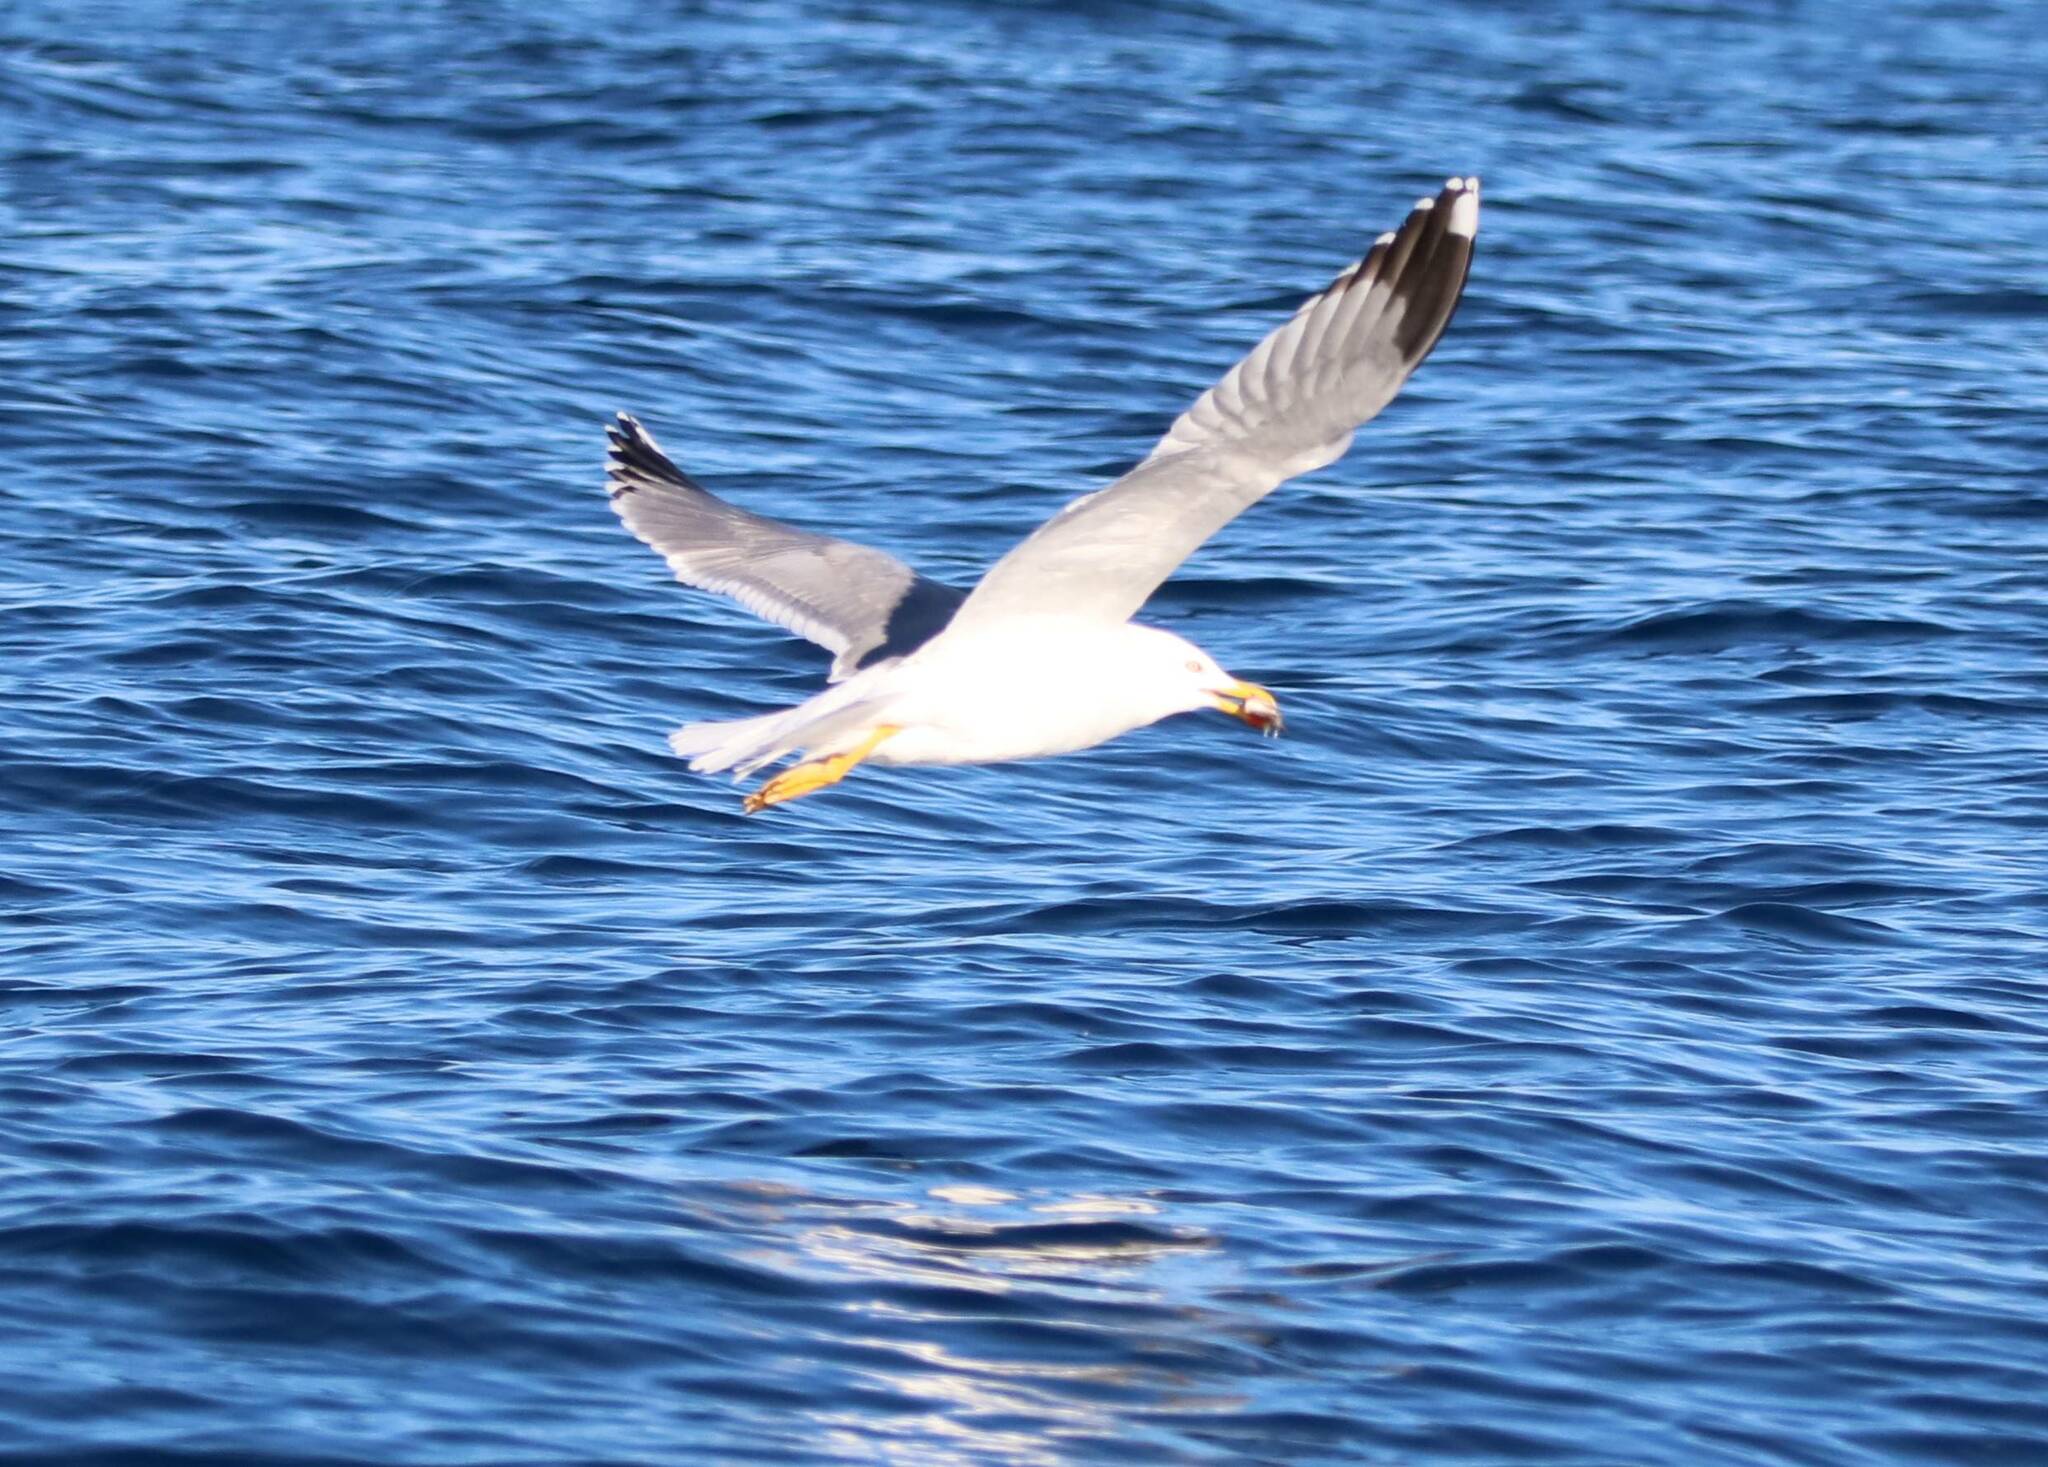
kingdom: Animalia
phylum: Chordata
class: Aves
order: Charadriiformes
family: Laridae
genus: Larus
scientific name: Larus michahellis
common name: Yellow-legged gull
